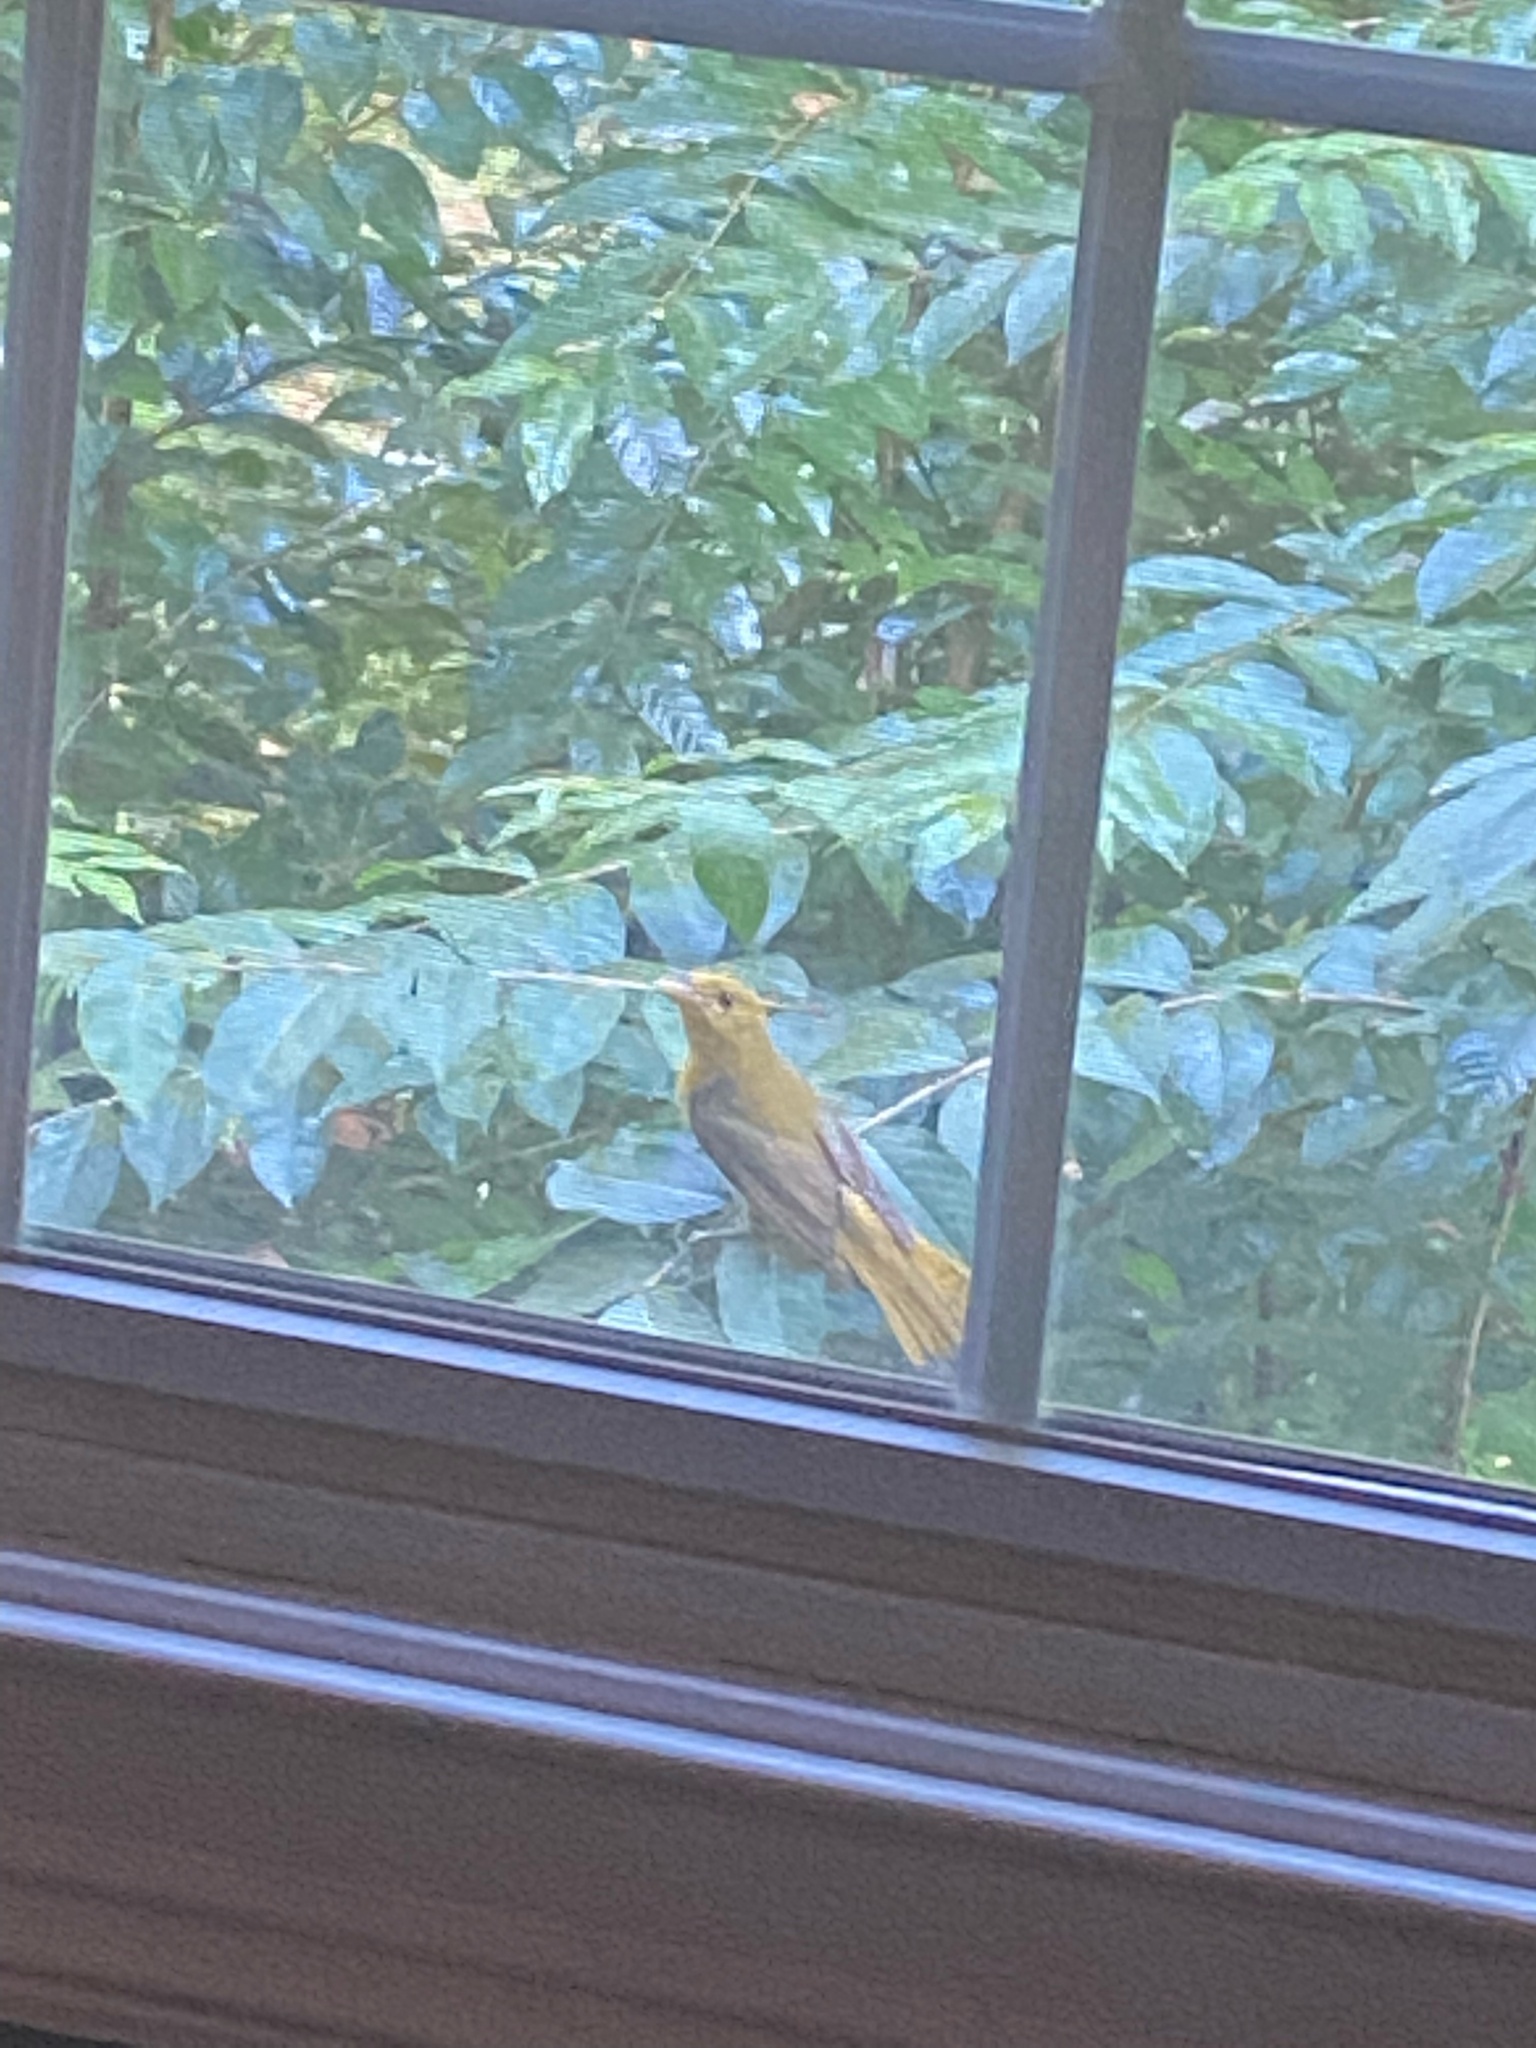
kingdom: Animalia
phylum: Chordata
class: Aves
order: Passeriformes
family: Cardinalidae
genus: Piranga
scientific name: Piranga rubra
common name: Summer tanager
